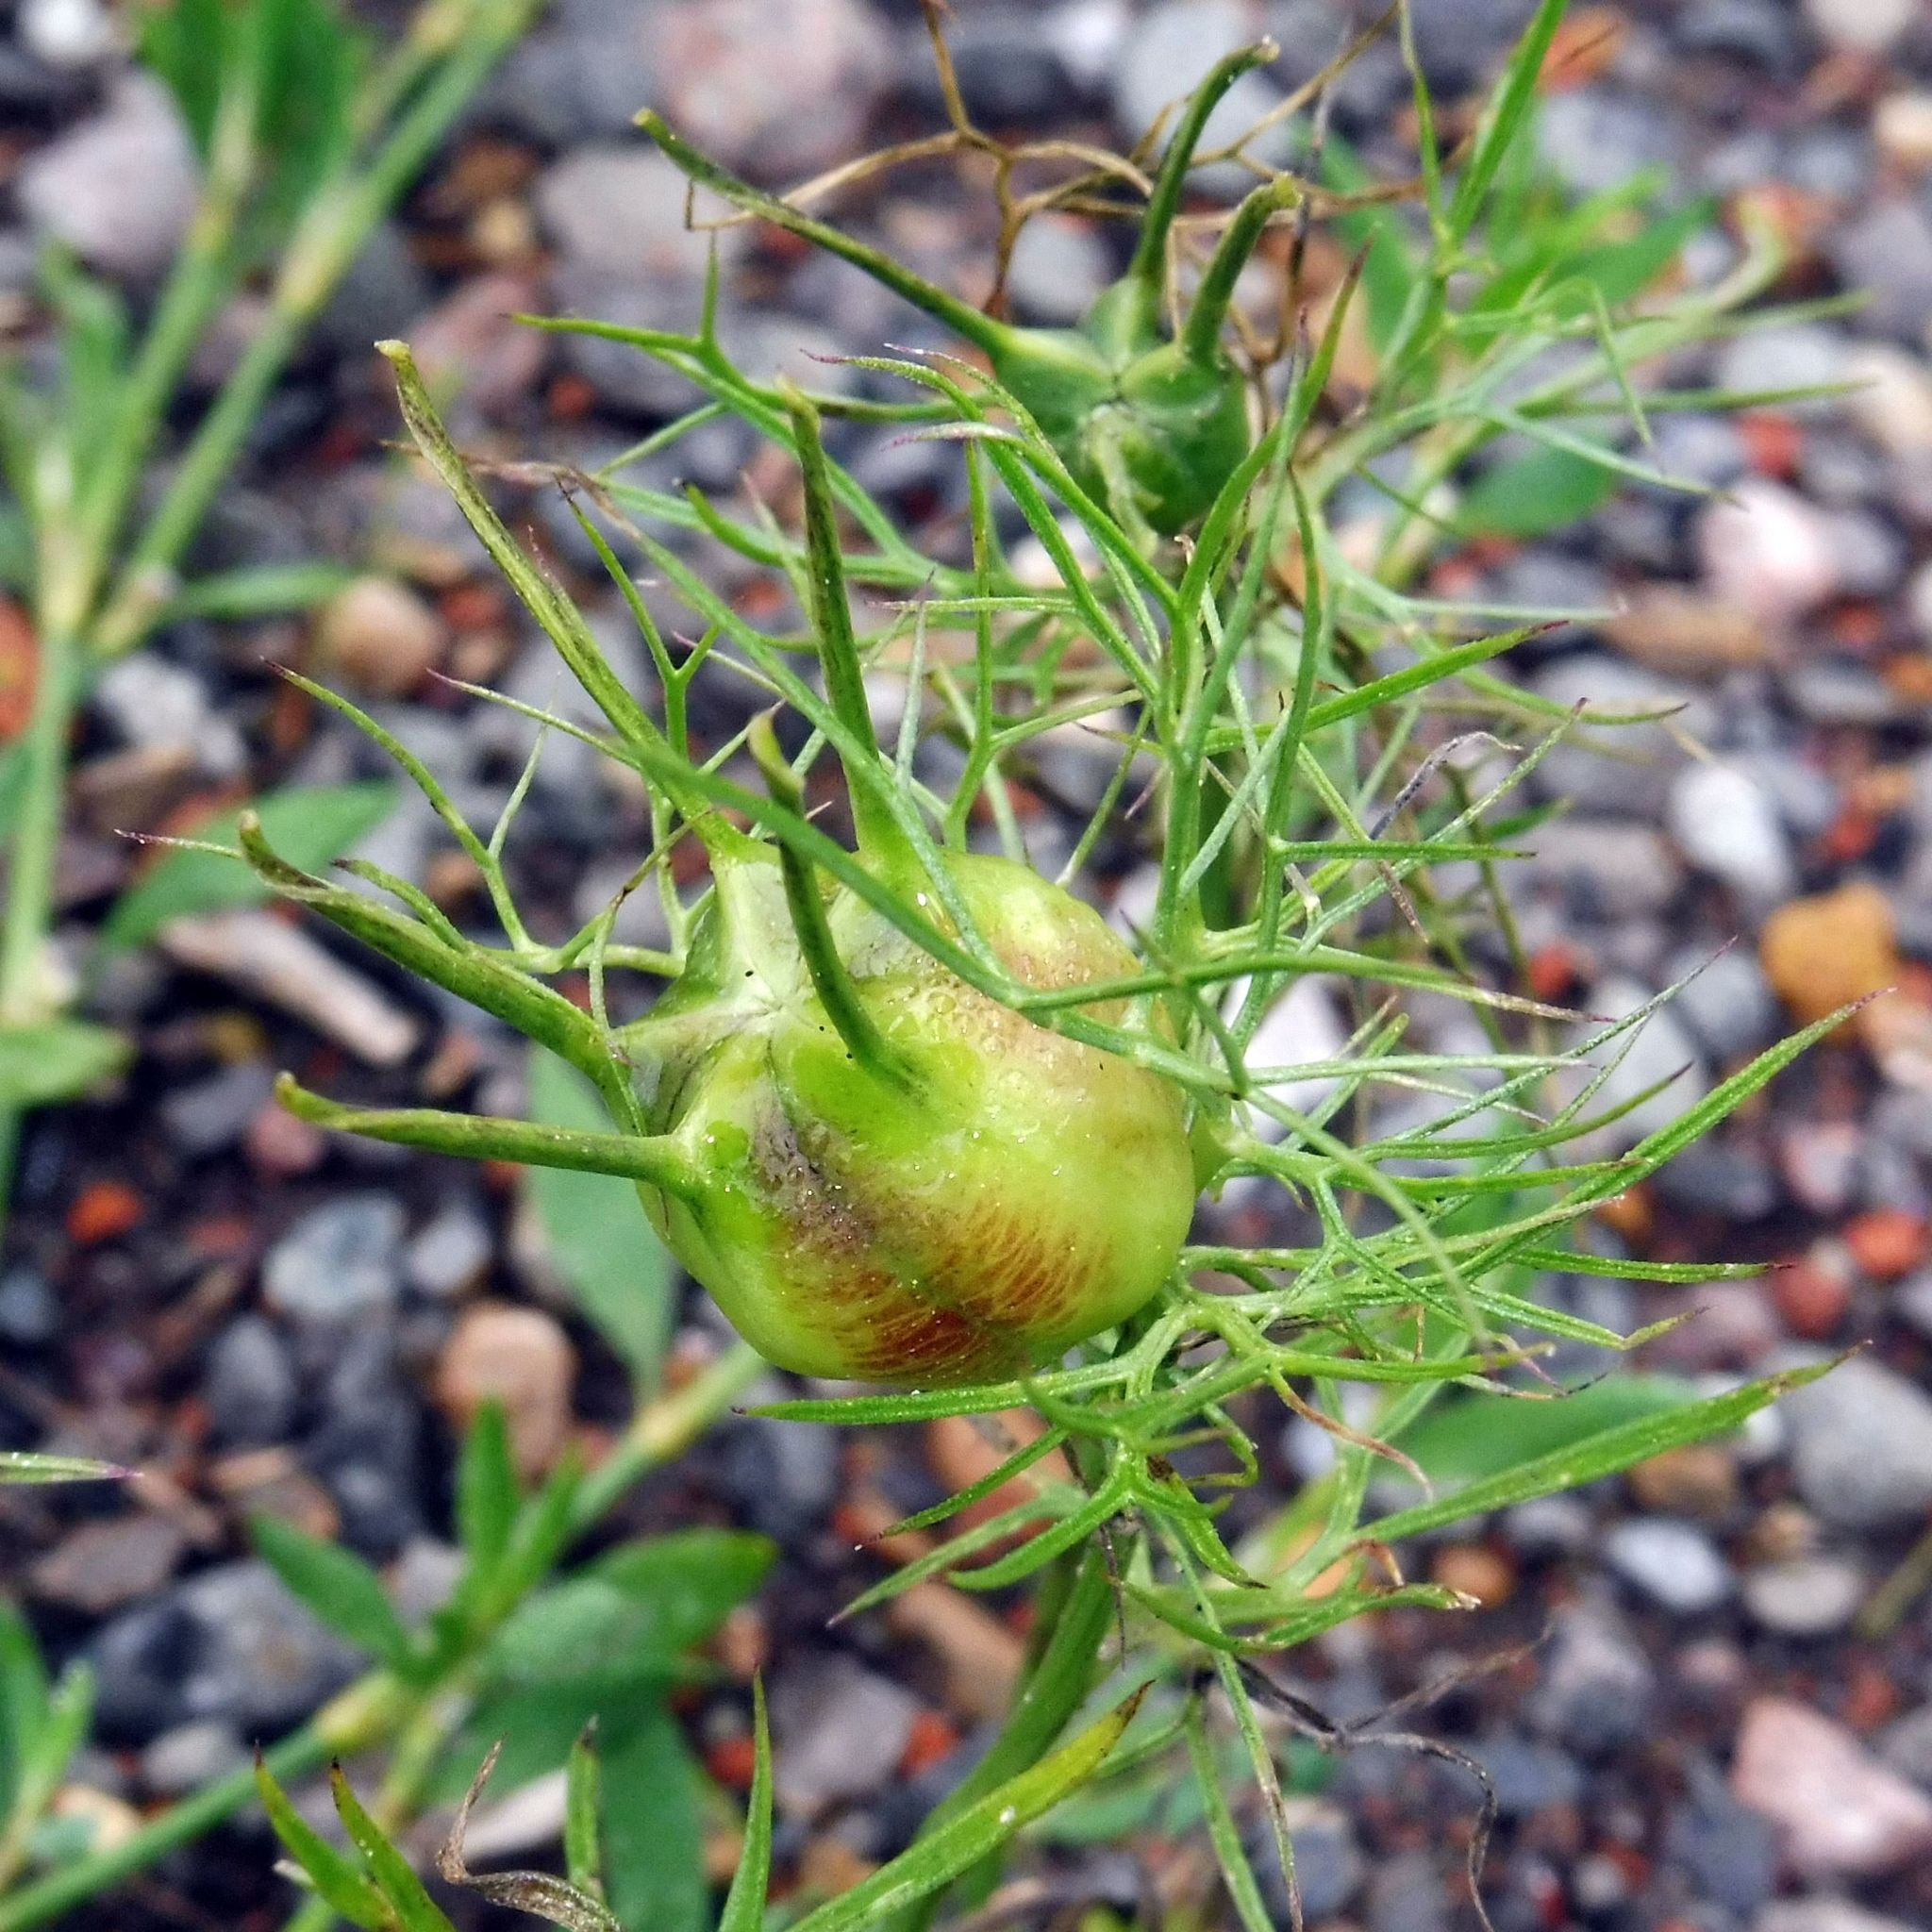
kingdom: Plantae
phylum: Tracheophyta
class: Magnoliopsida
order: Ranunculales
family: Ranunculaceae
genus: Nigella
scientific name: Nigella damascena
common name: Love-in-a-mist
